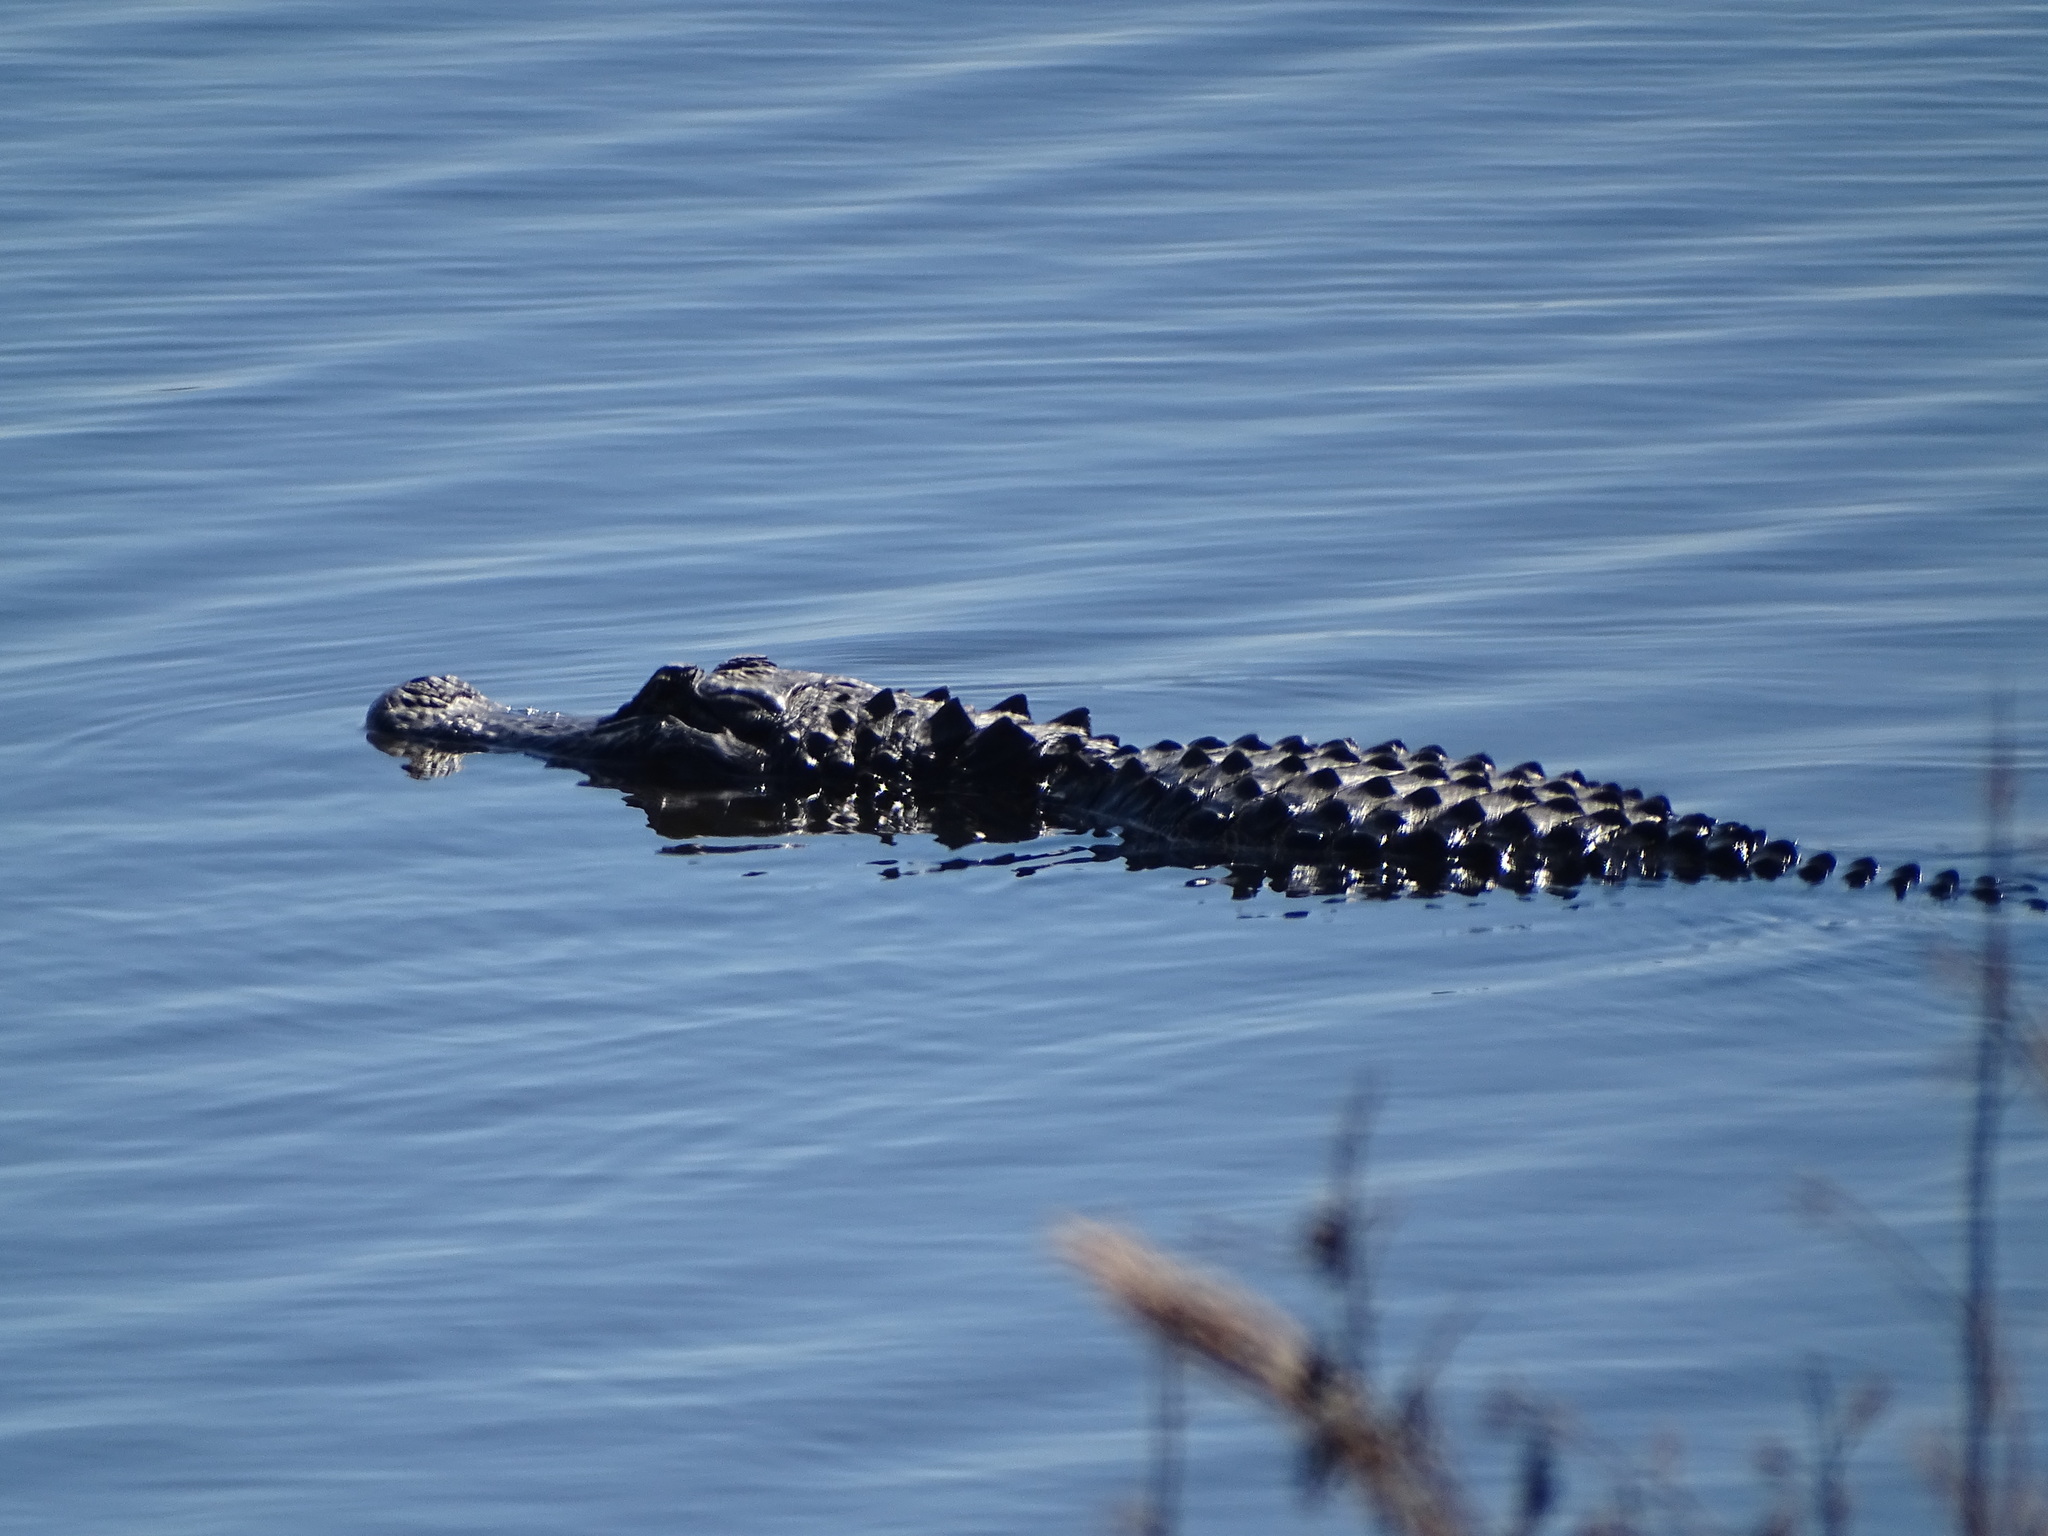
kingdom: Animalia
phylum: Chordata
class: Crocodylia
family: Alligatoridae
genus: Alligator
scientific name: Alligator mississippiensis
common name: American alligator
